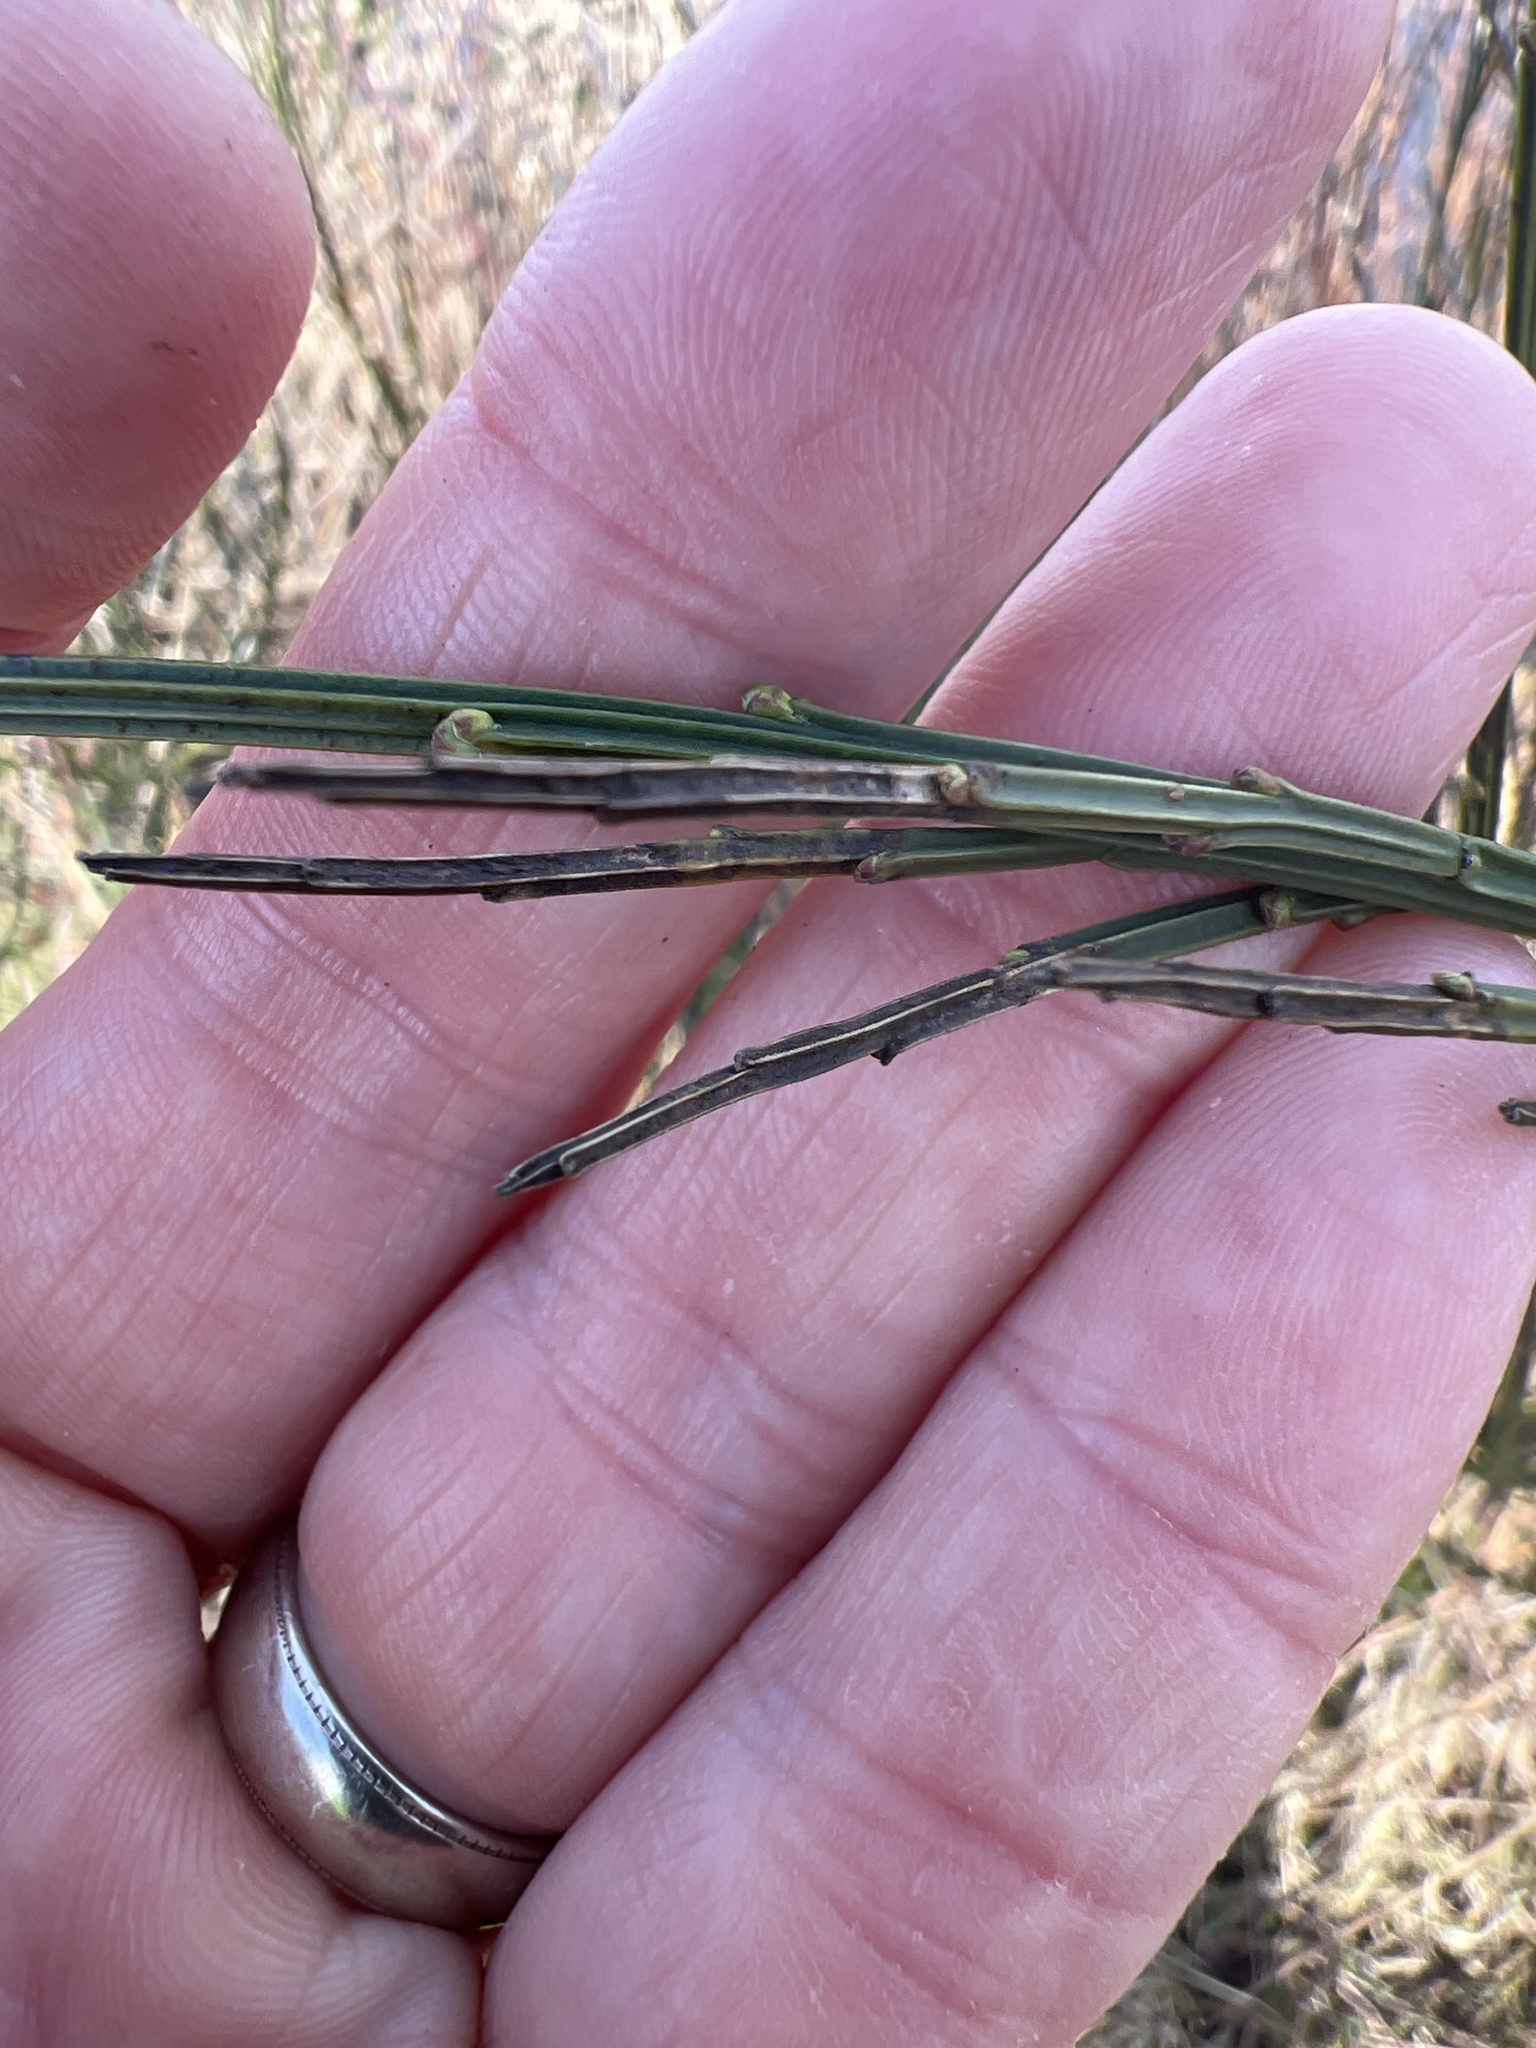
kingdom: Plantae
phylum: Tracheophyta
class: Magnoliopsida
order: Fabales
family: Fabaceae
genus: Cytisus
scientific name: Cytisus scoparius
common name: Scotch broom
